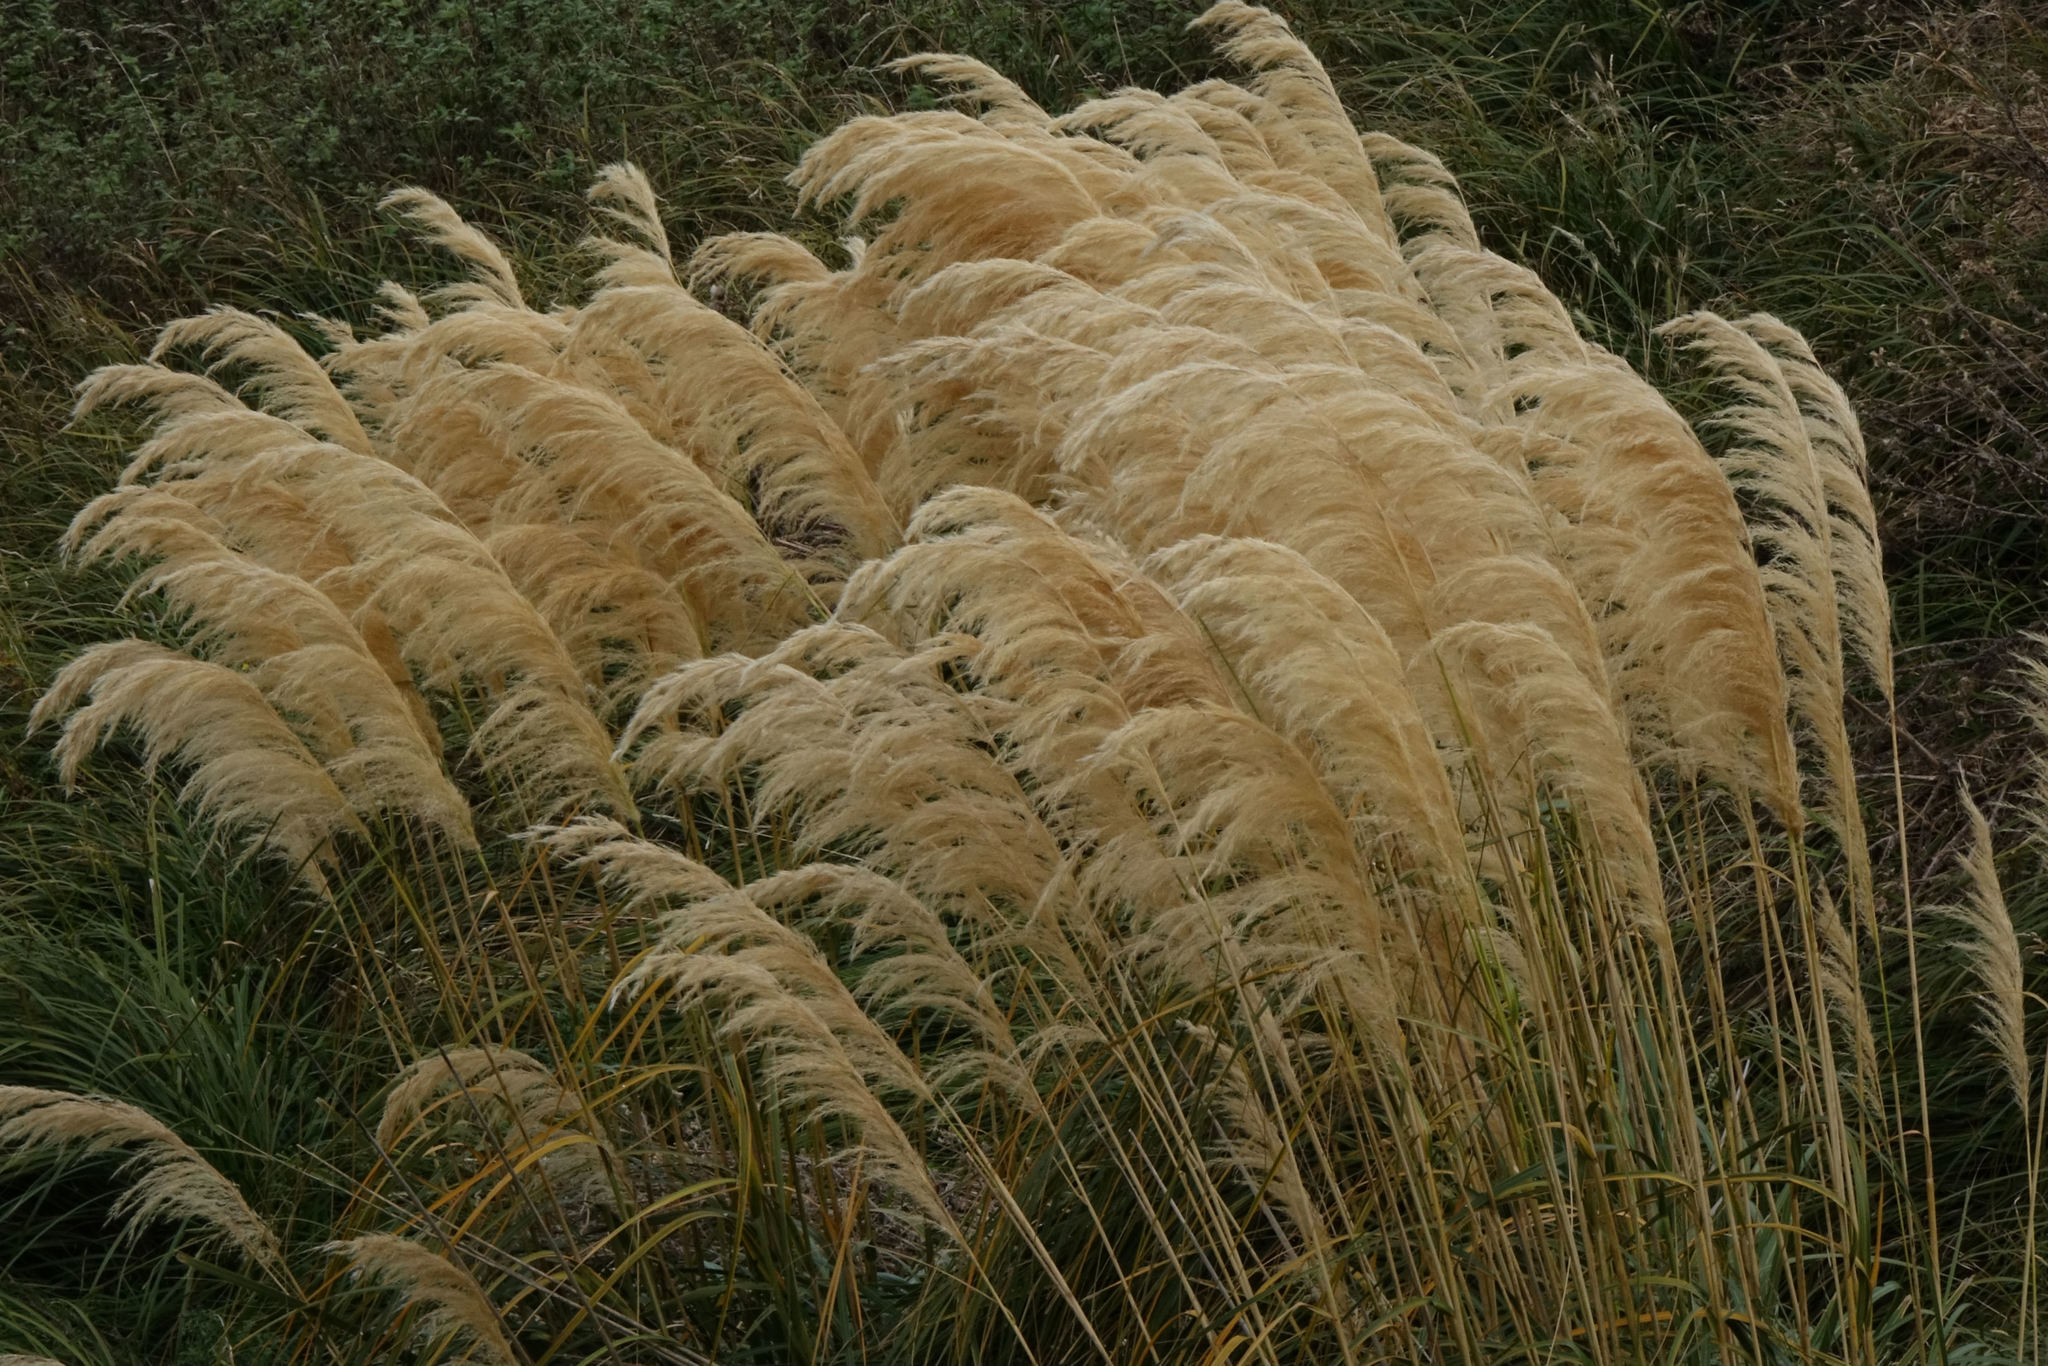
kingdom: Plantae
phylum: Tracheophyta
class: Liliopsida
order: Poales
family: Poaceae
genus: Austroderia
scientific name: Austroderia richardii
